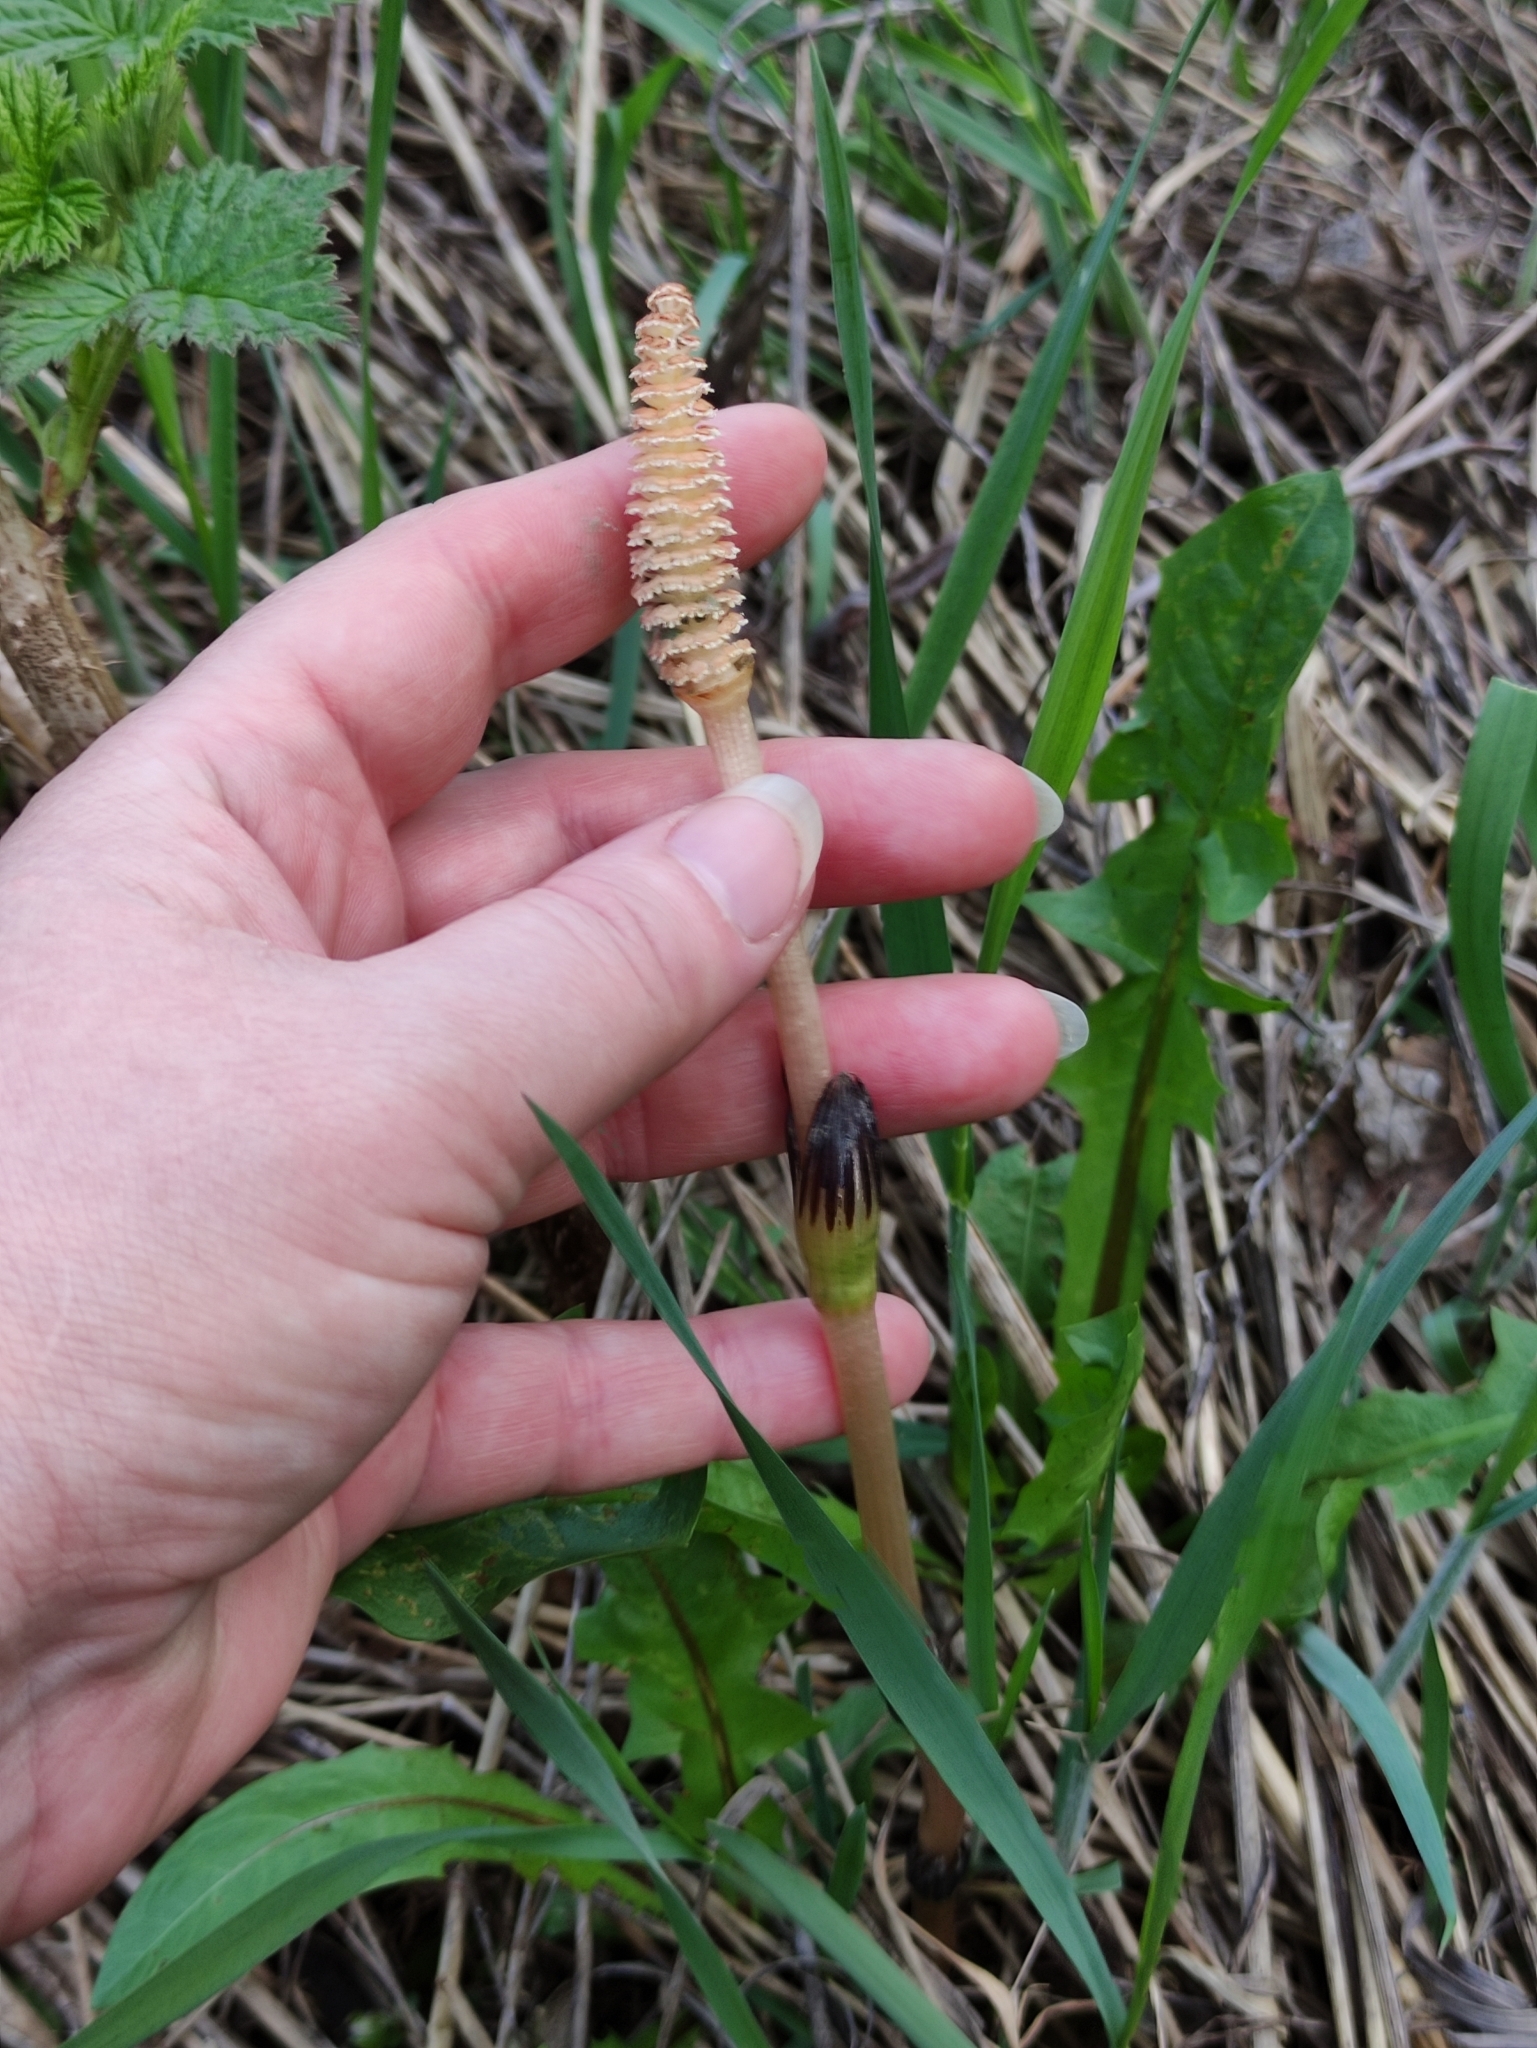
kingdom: Plantae
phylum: Tracheophyta
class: Polypodiopsida
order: Equisetales
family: Equisetaceae
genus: Equisetum
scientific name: Equisetum arvense
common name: Field horsetail
